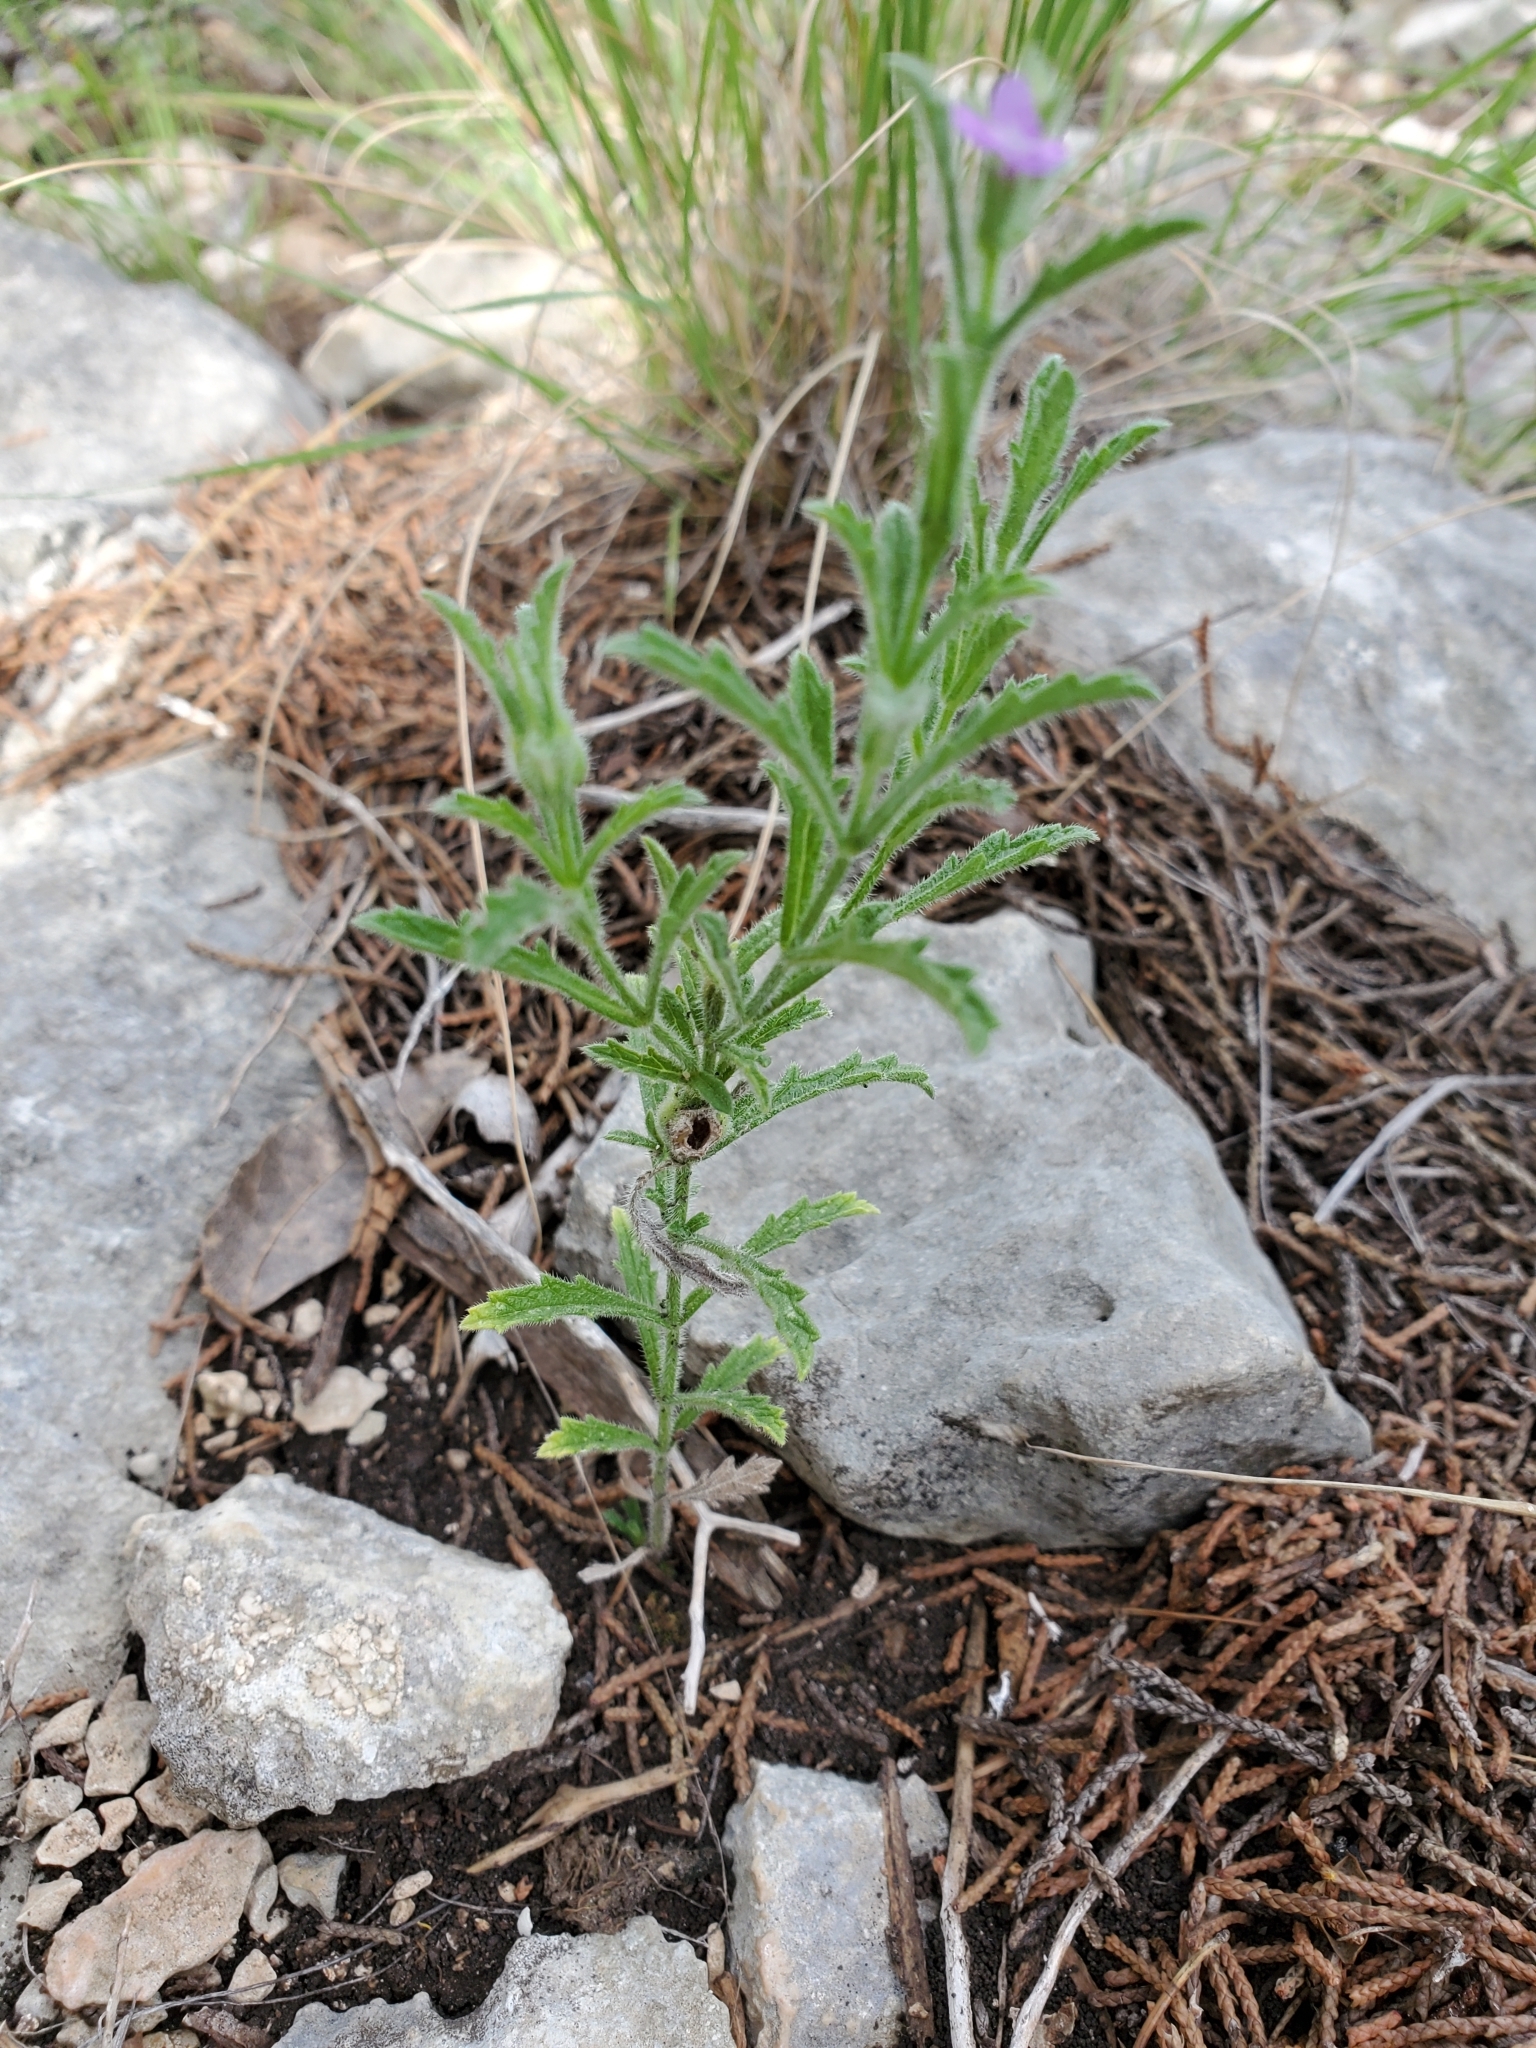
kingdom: Plantae
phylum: Tracheophyta
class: Magnoliopsida
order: Lamiales
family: Verbenaceae
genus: Verbena
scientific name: Verbena canescens
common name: Gray vervain
